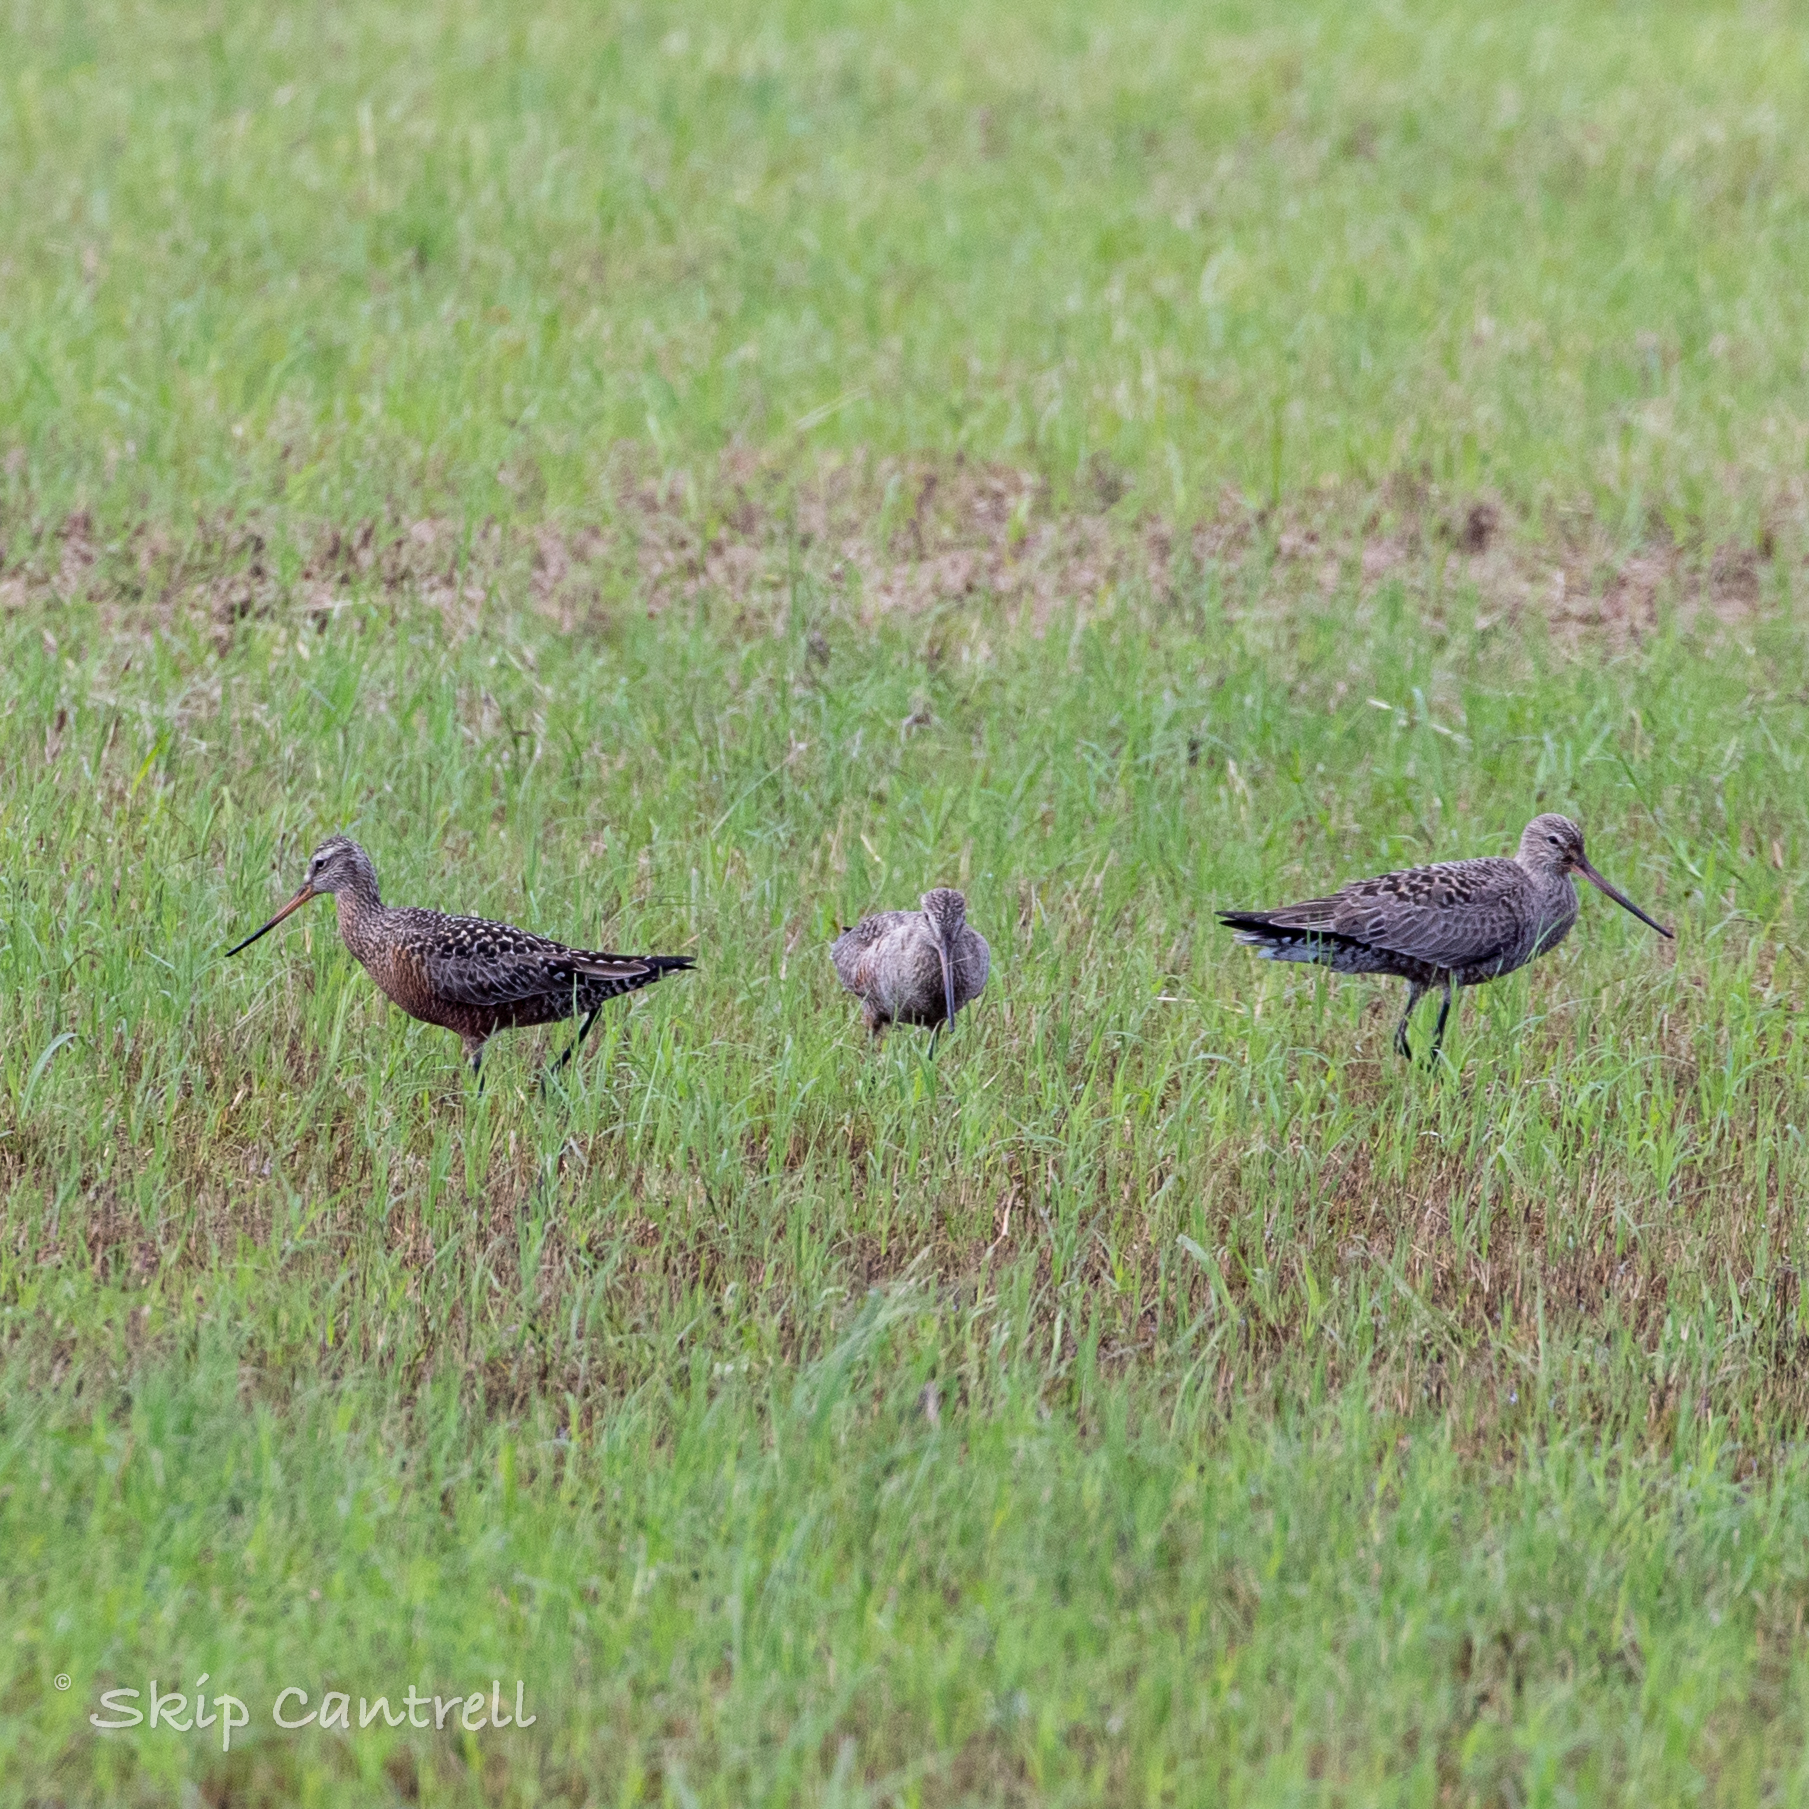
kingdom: Animalia
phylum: Chordata
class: Aves
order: Charadriiformes
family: Scolopacidae
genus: Limosa
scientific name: Limosa haemastica
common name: Hudsonian godwit
